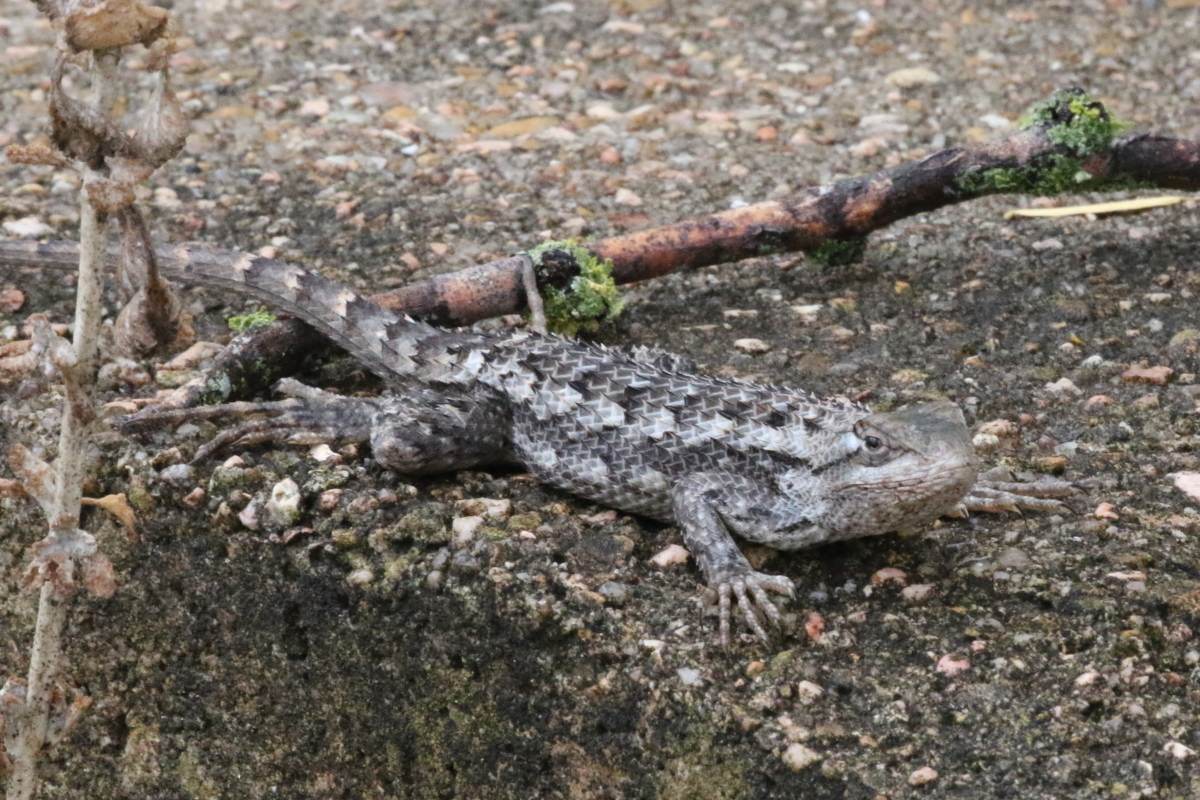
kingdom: Animalia
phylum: Chordata
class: Squamata
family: Phrynosomatidae
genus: Sceloporus
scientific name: Sceloporus olivaceus
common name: Texas spiny lizard
